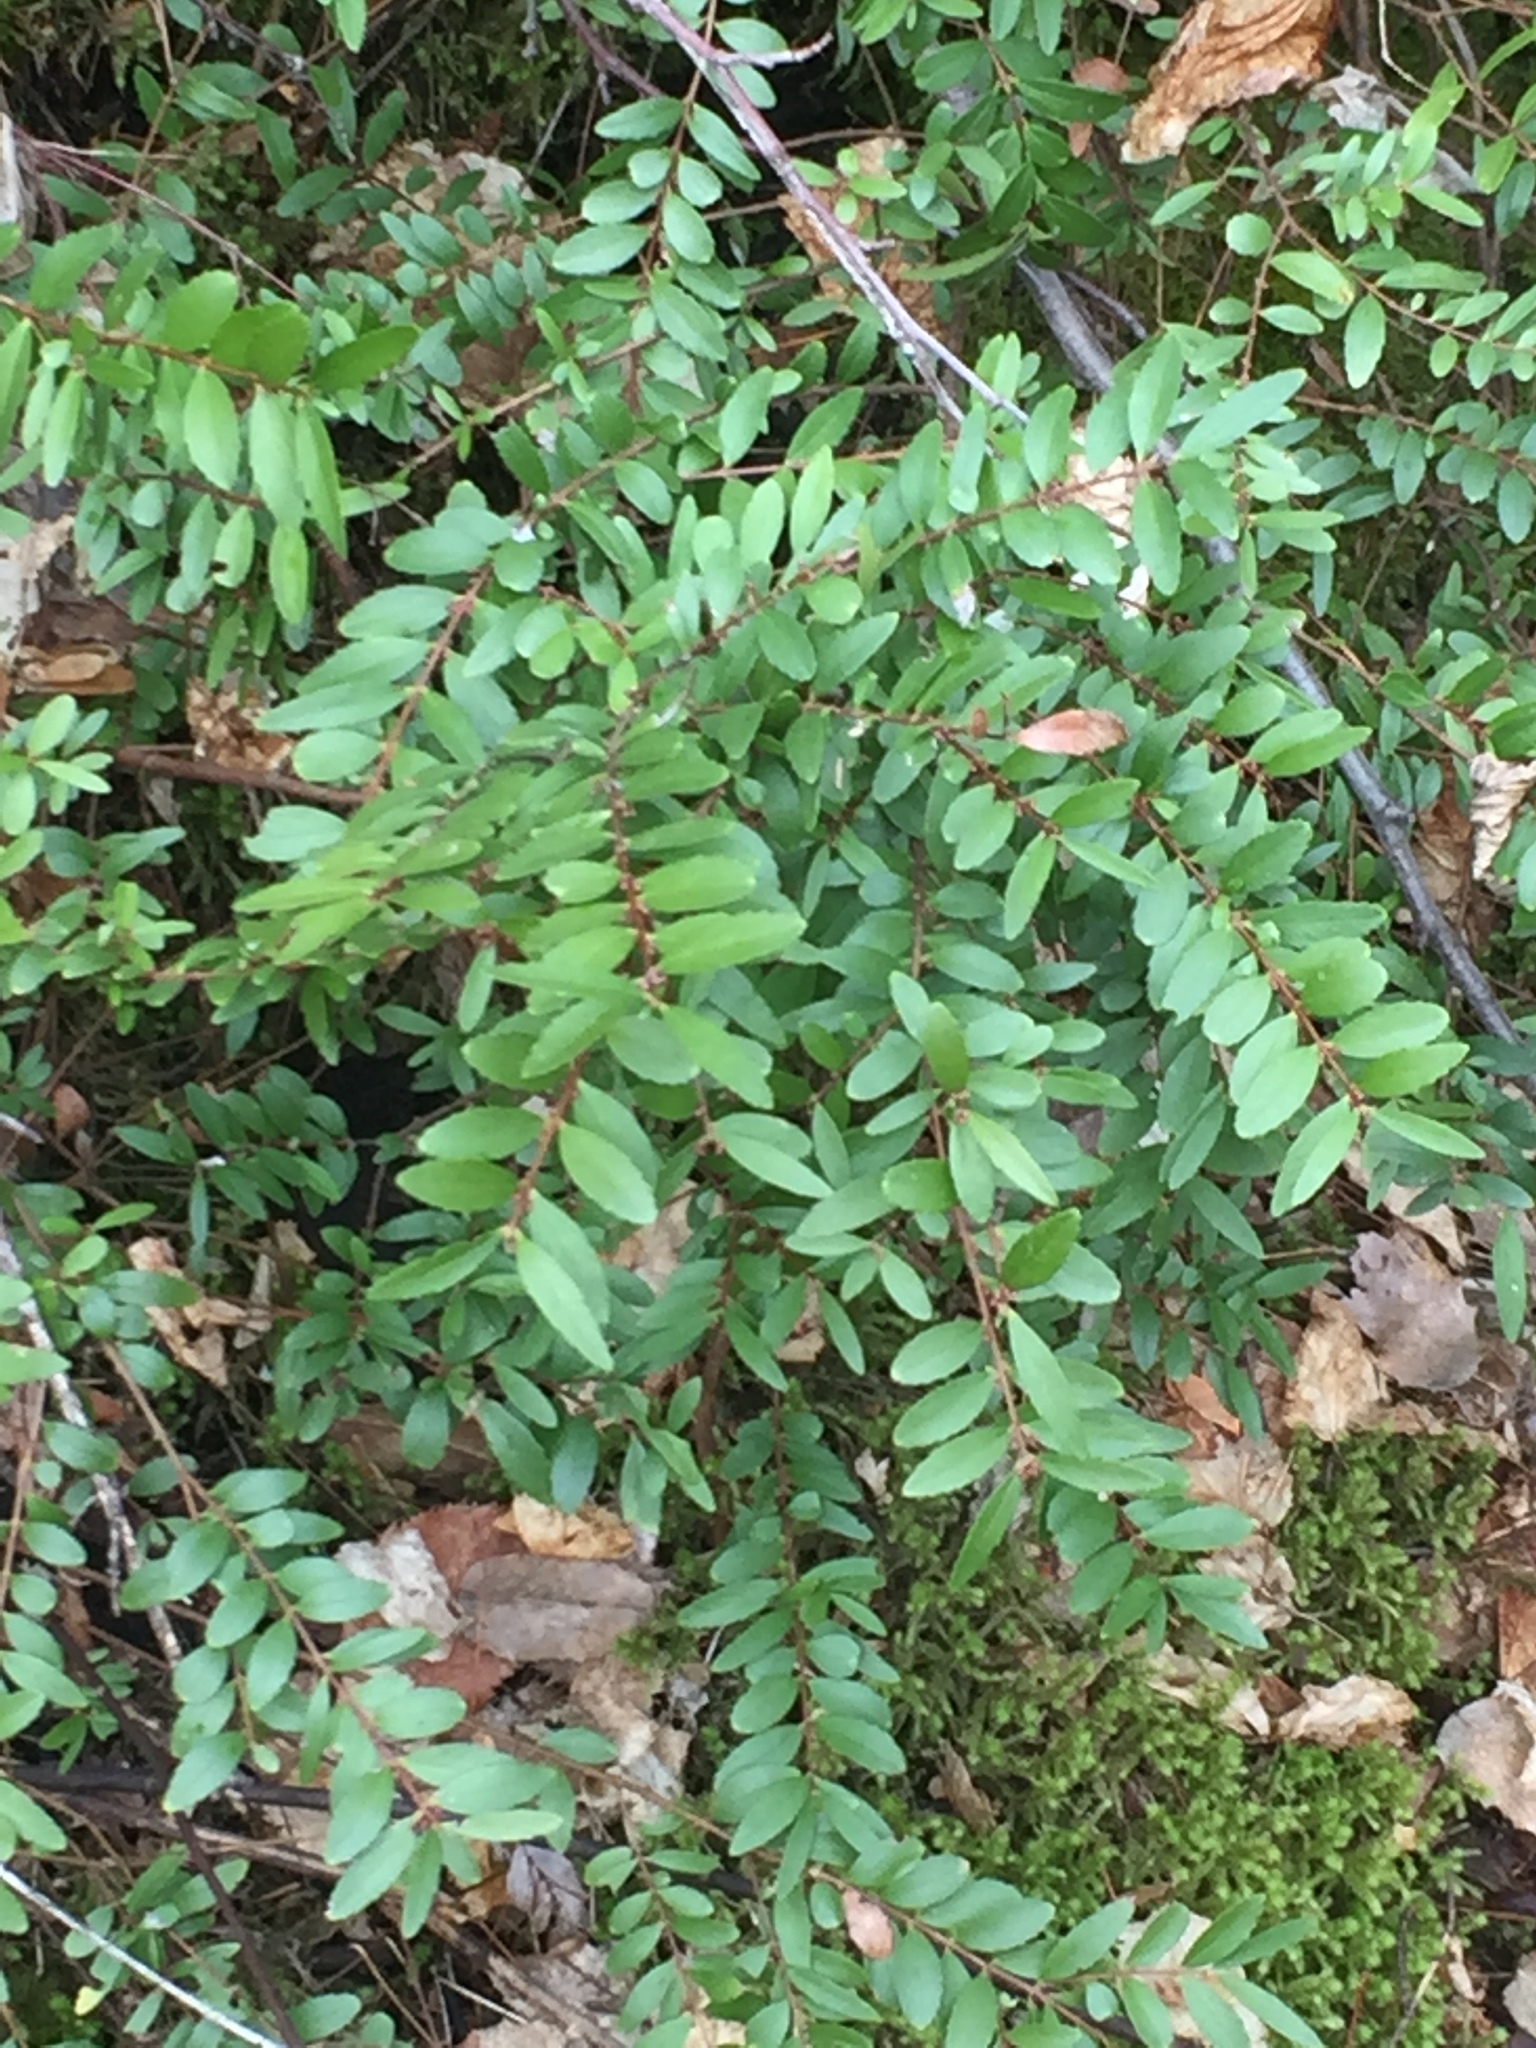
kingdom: Plantae
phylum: Tracheophyta
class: Magnoliopsida
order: Celastrales
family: Celastraceae
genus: Paxistima
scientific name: Paxistima myrsinites
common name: Mountain-lover
